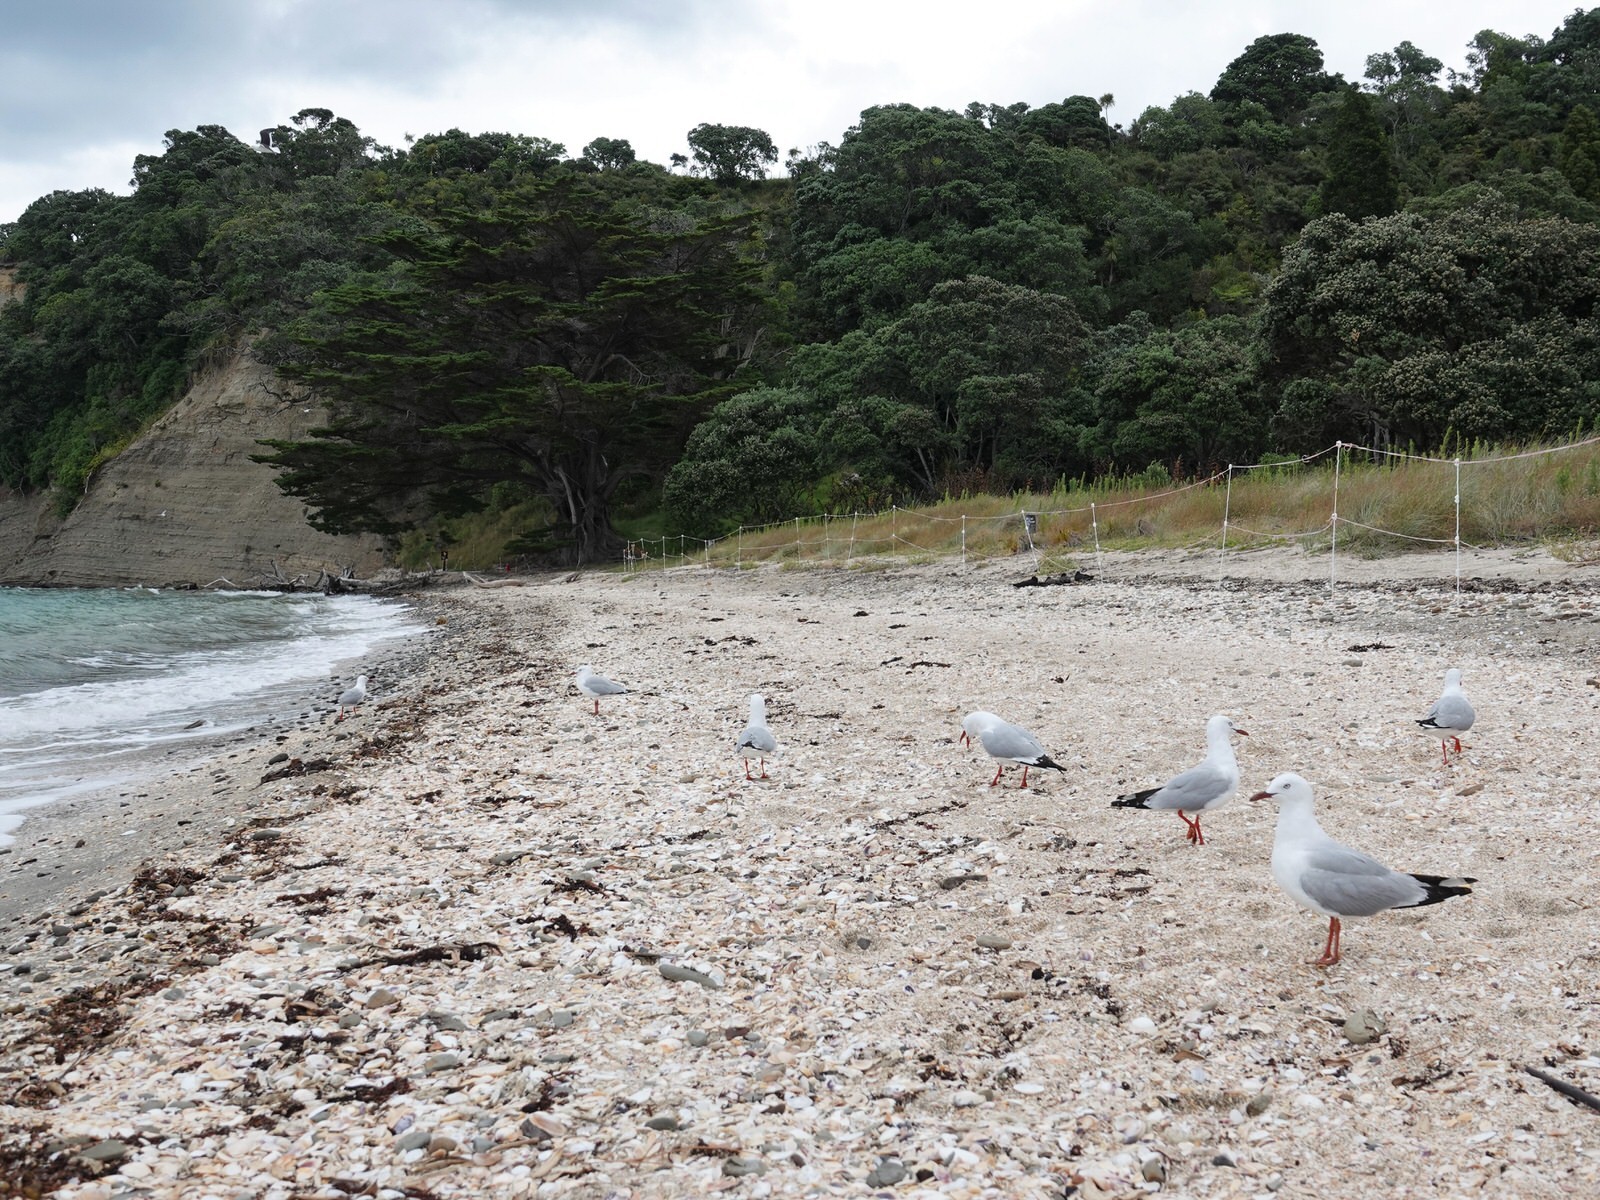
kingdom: Animalia
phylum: Chordata
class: Aves
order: Charadriiformes
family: Haematopodidae
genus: Haematopus
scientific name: Haematopus unicolor
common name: Variable oystercatcher
